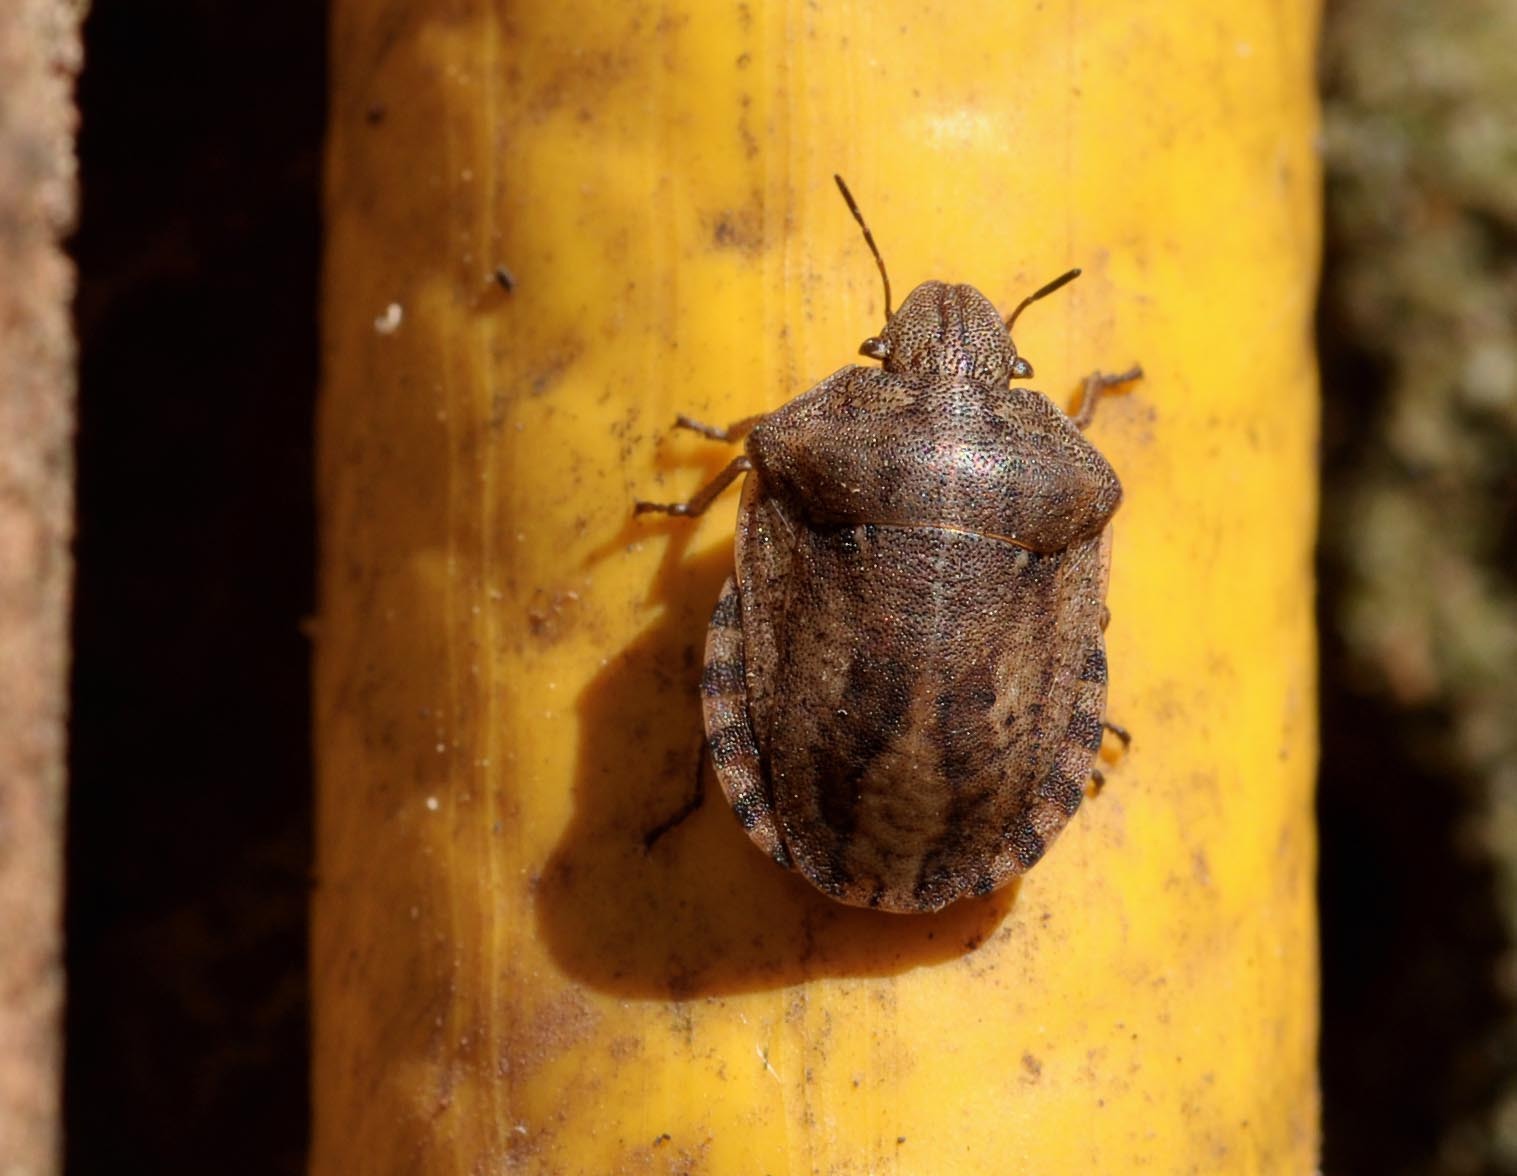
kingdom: Animalia
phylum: Arthropoda
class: Insecta
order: Hemiptera
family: Scutelleridae
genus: Eurygaster
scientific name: Eurygaster testudinaria
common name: Tortoise bug
